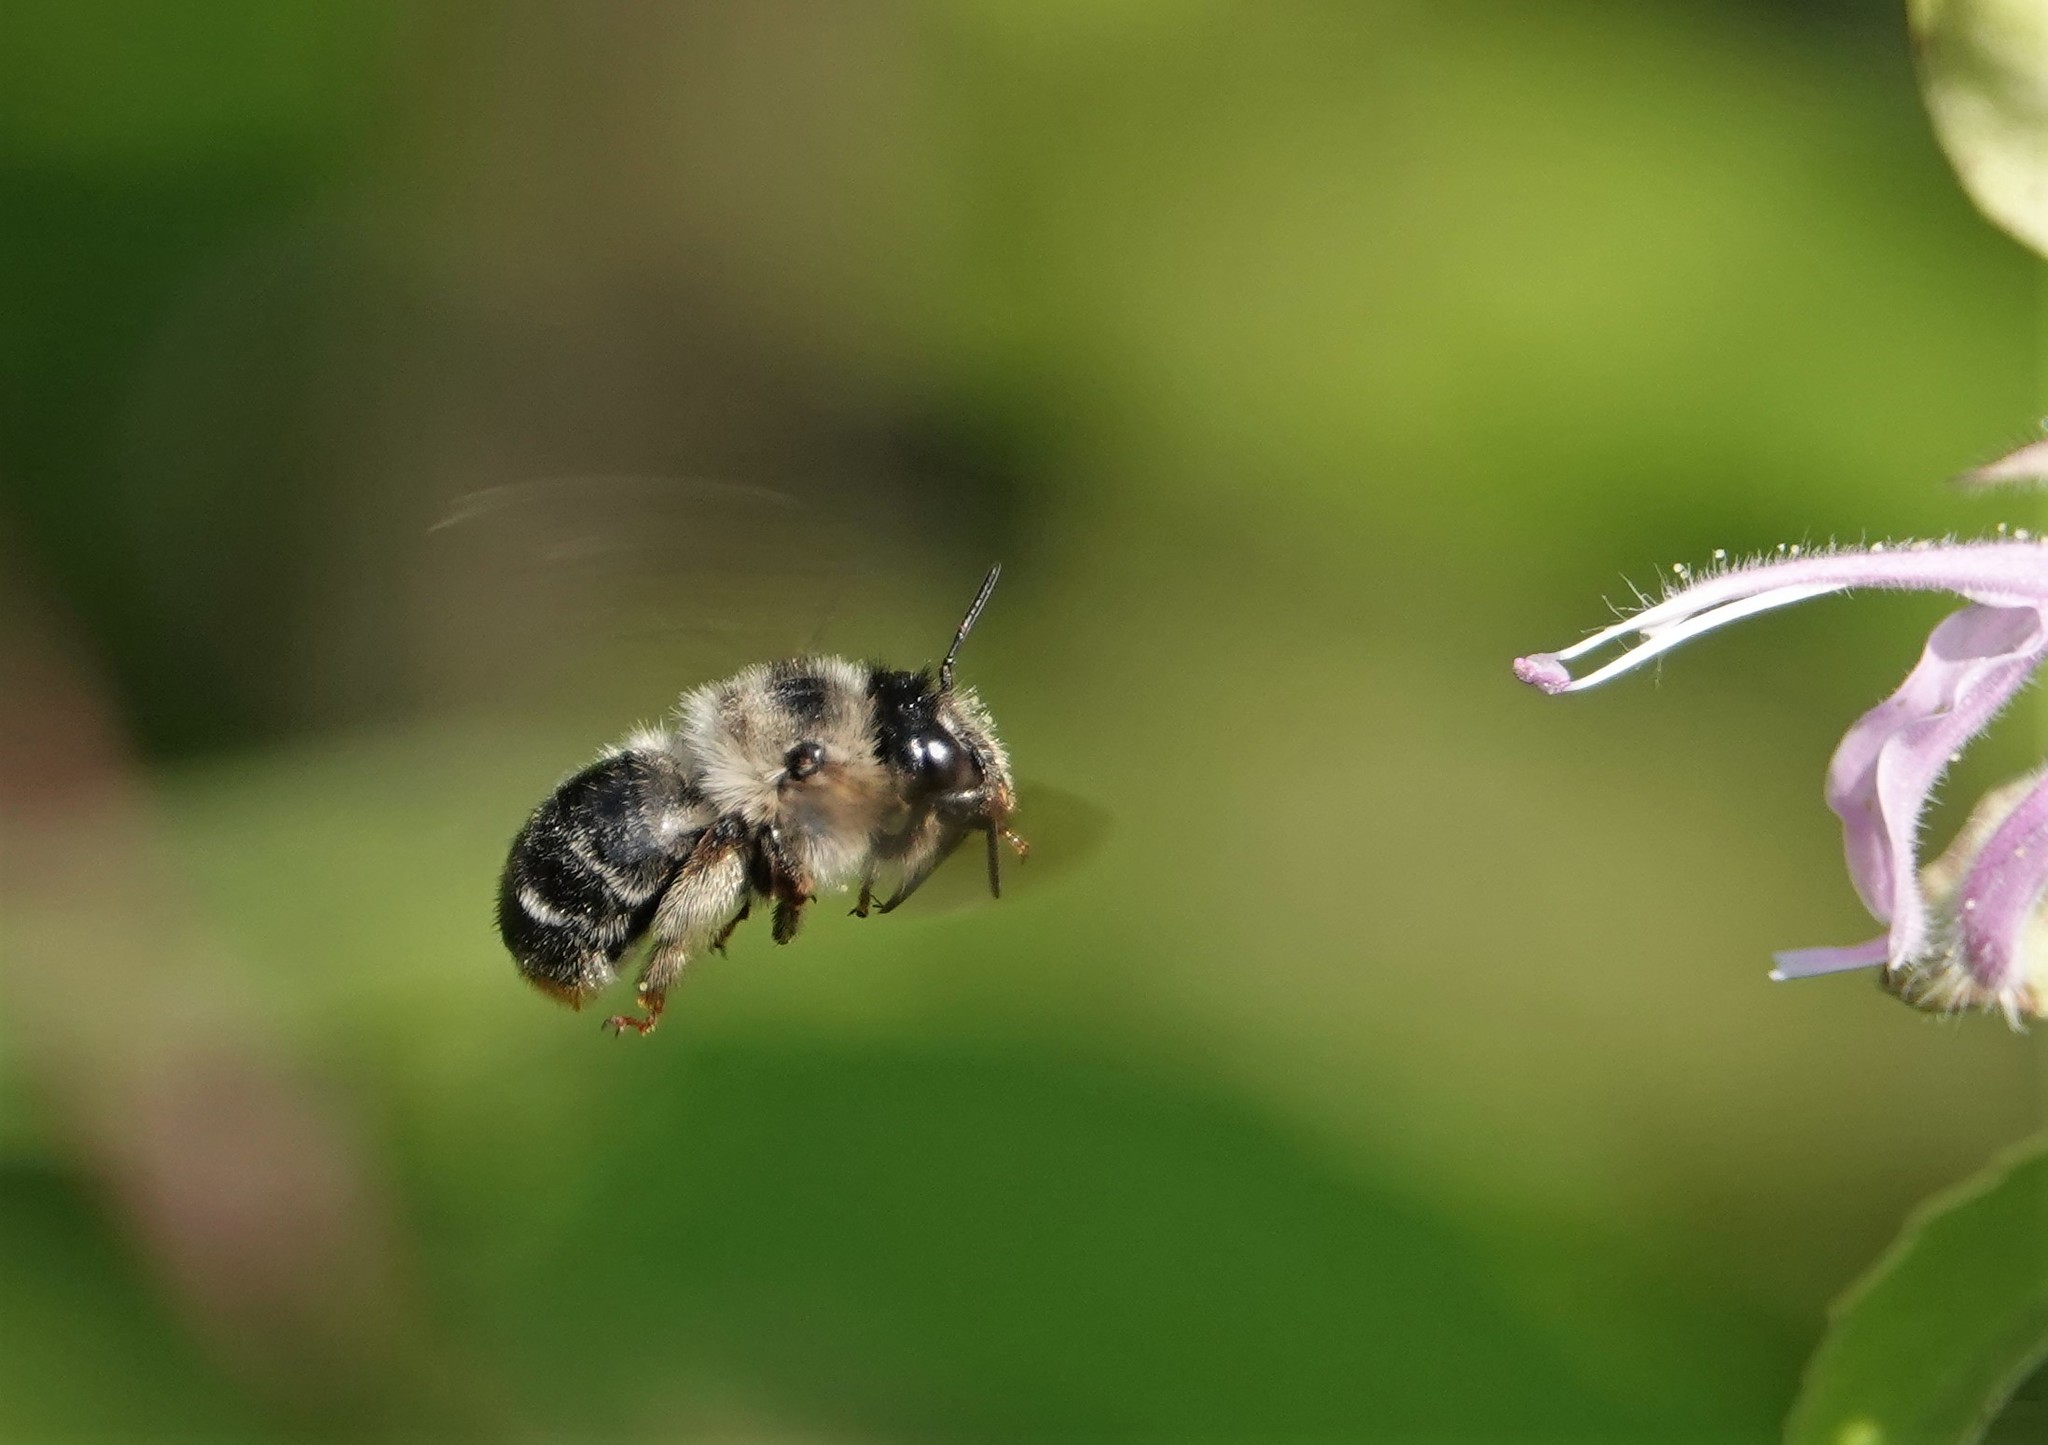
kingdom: Animalia
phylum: Arthropoda
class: Insecta
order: Hymenoptera
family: Apidae
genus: Anthophora
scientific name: Anthophora terminalis
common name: Orange-tipped wood-digger bee
